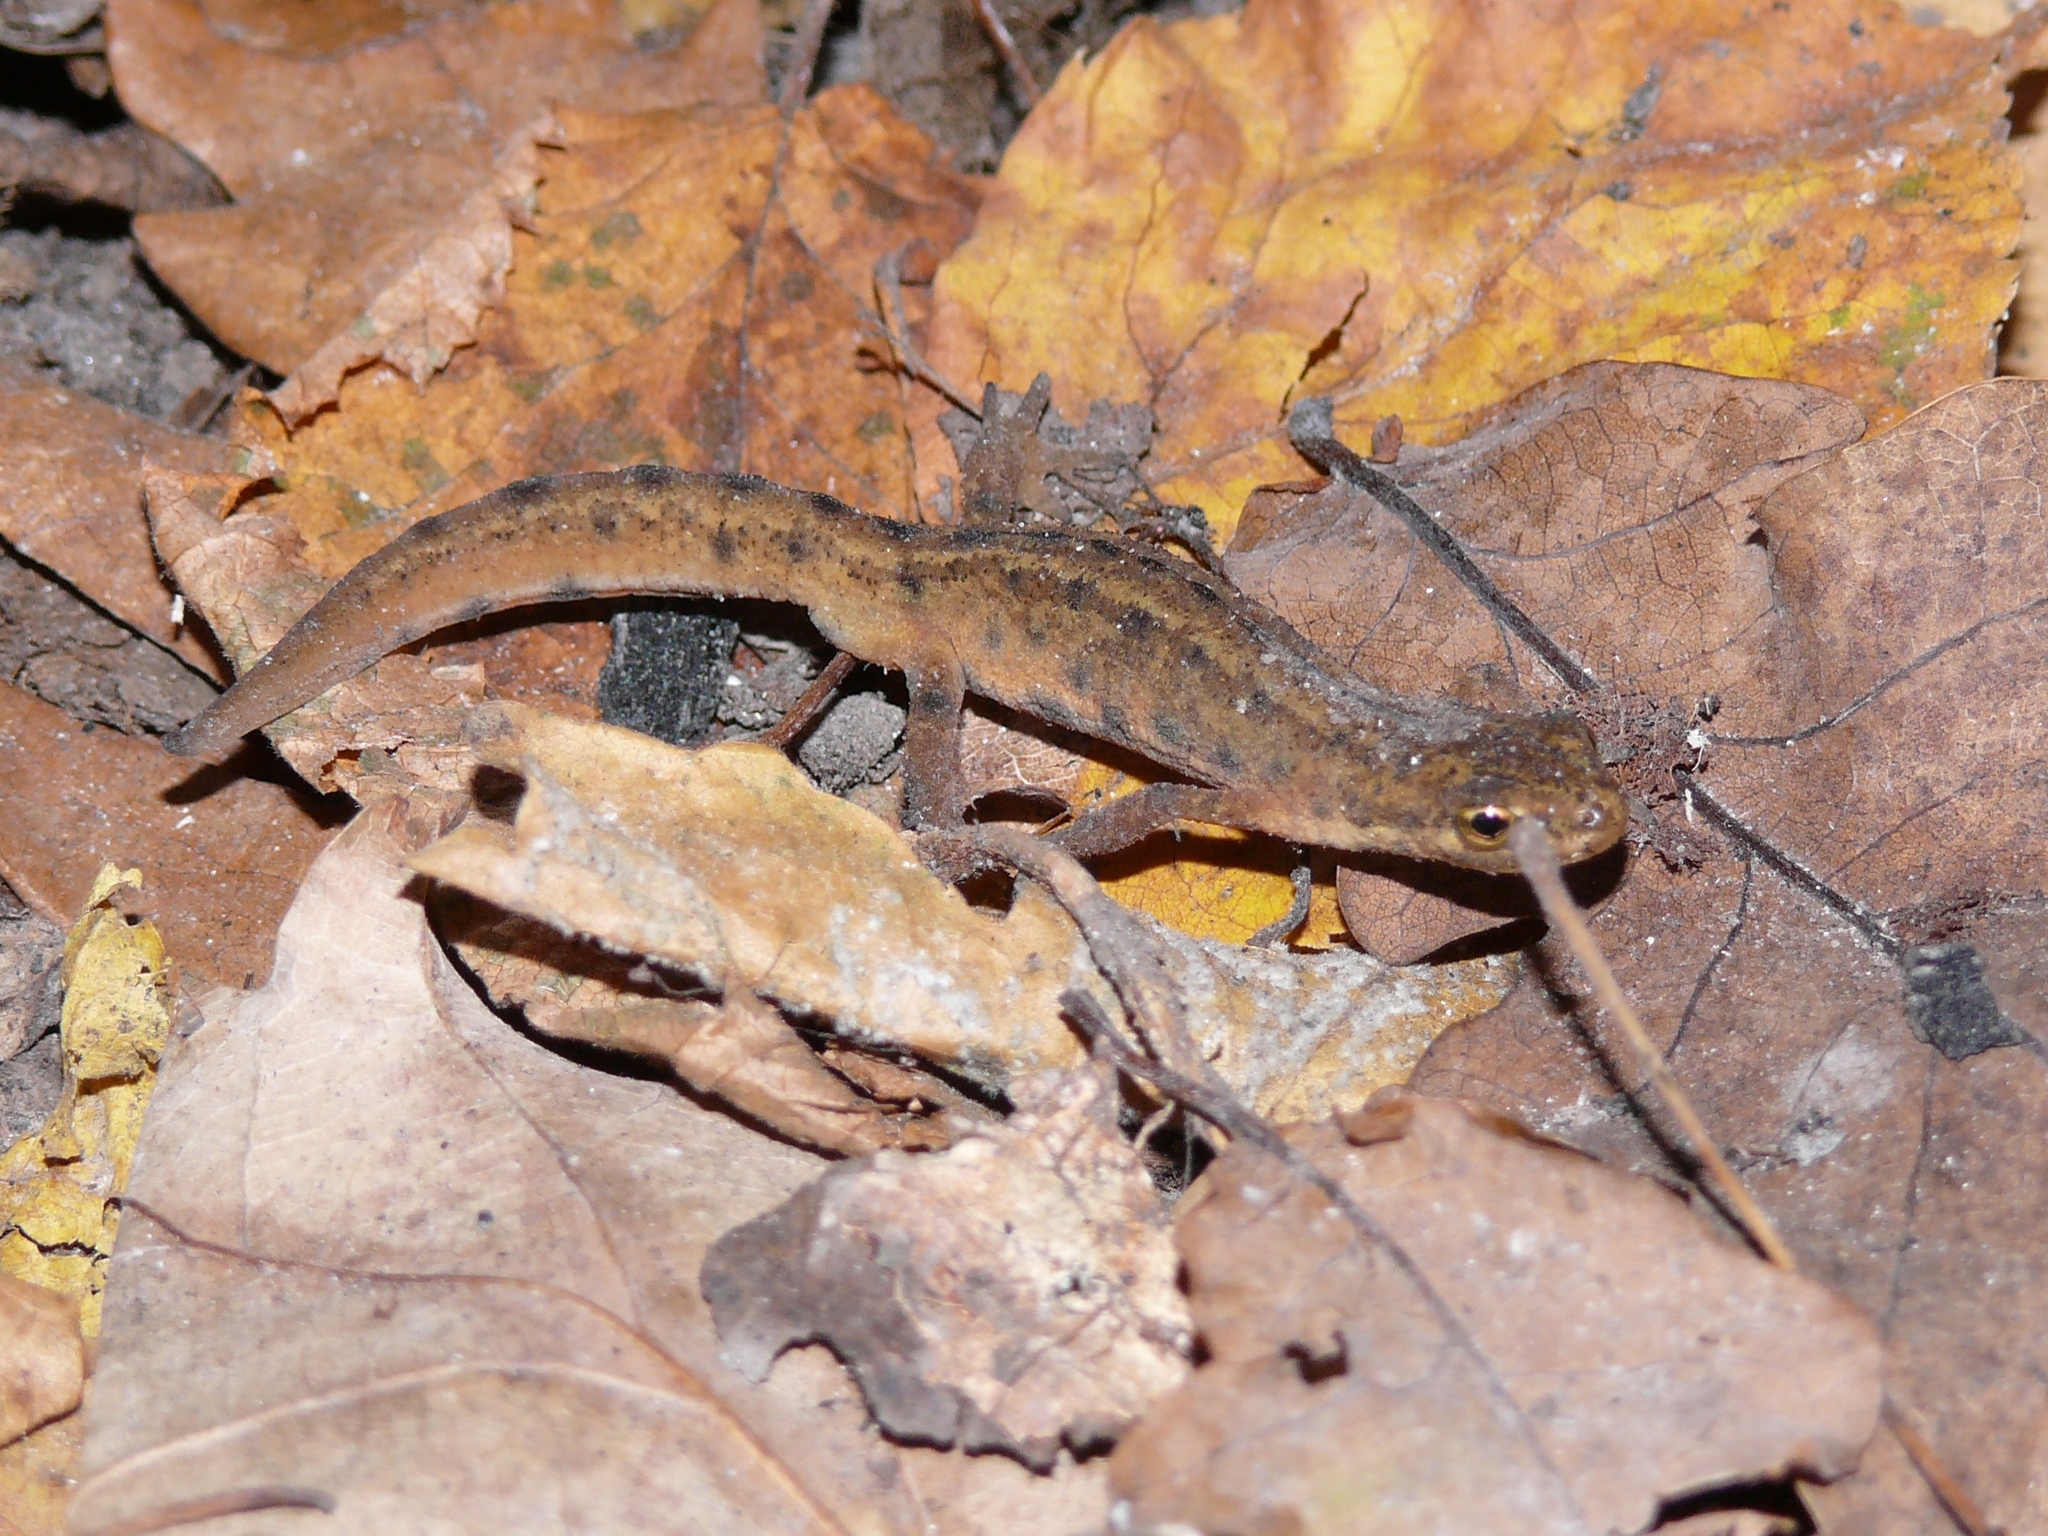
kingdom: Animalia
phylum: Chordata
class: Amphibia
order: Caudata
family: Salamandridae
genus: Lissotriton
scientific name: Lissotriton vulgaris
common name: Smooth newt
